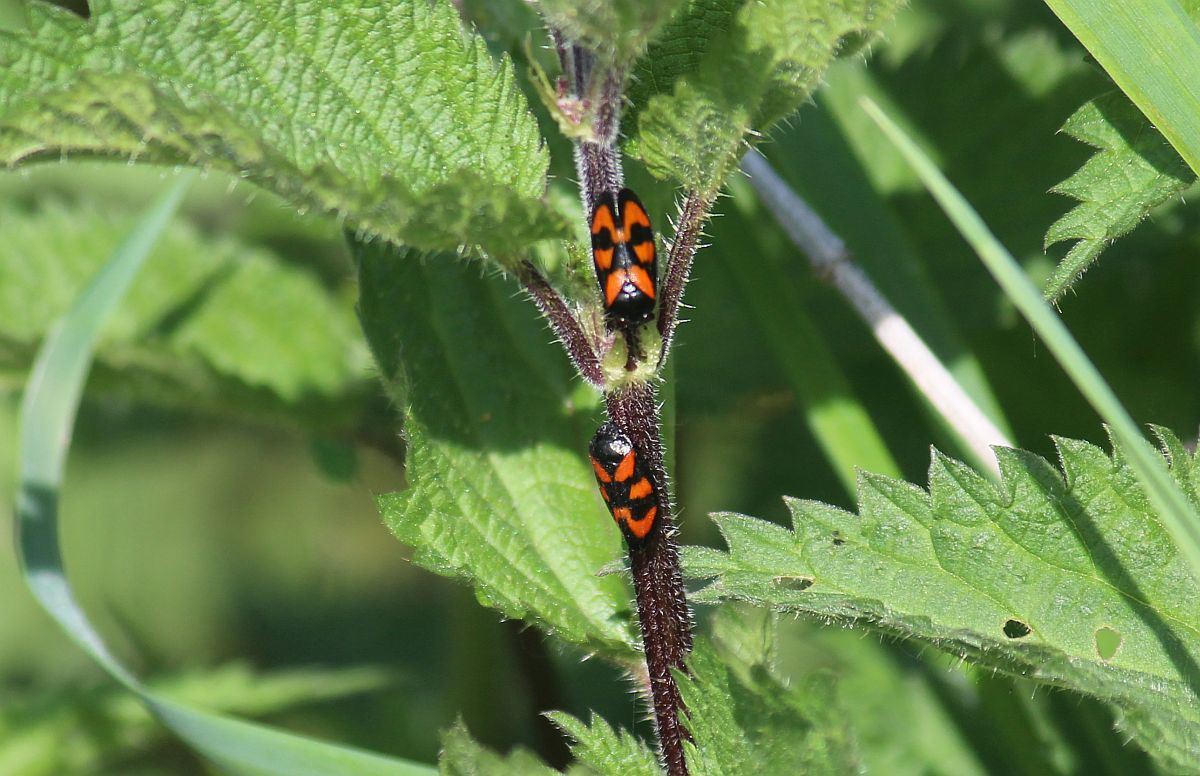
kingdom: Animalia
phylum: Arthropoda
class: Insecta
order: Hemiptera
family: Cercopidae
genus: Cercopis
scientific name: Cercopis vulnerata
